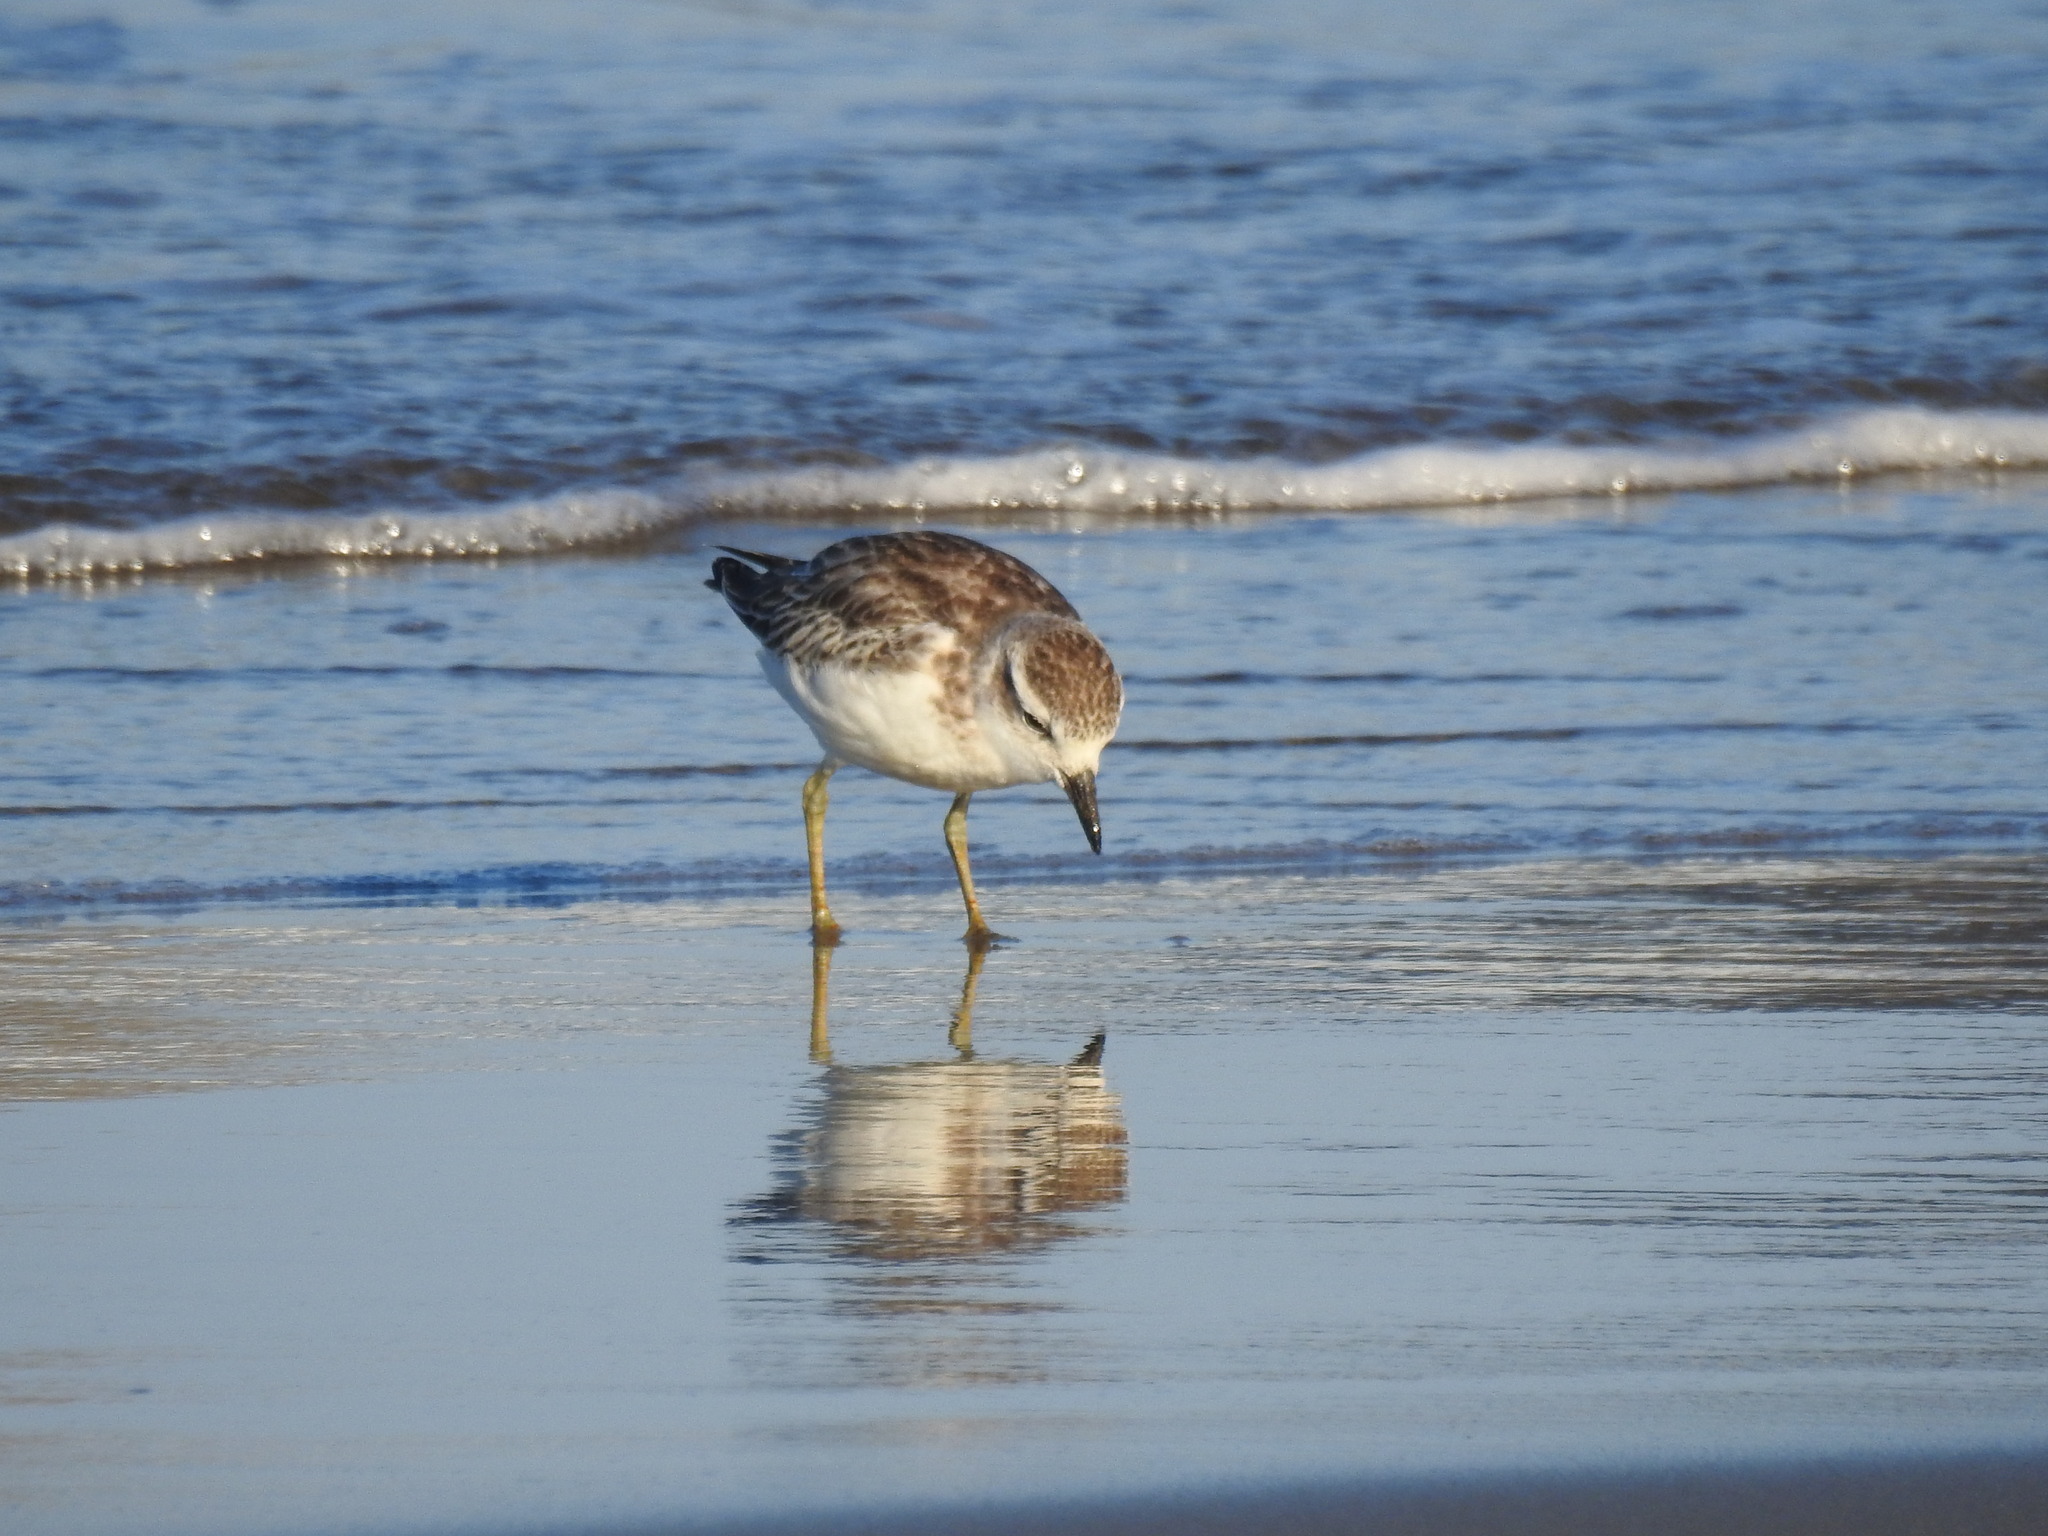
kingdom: Animalia
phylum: Chordata
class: Aves
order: Charadriiformes
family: Charadriidae
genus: Anarhynchus
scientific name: Anarhynchus
